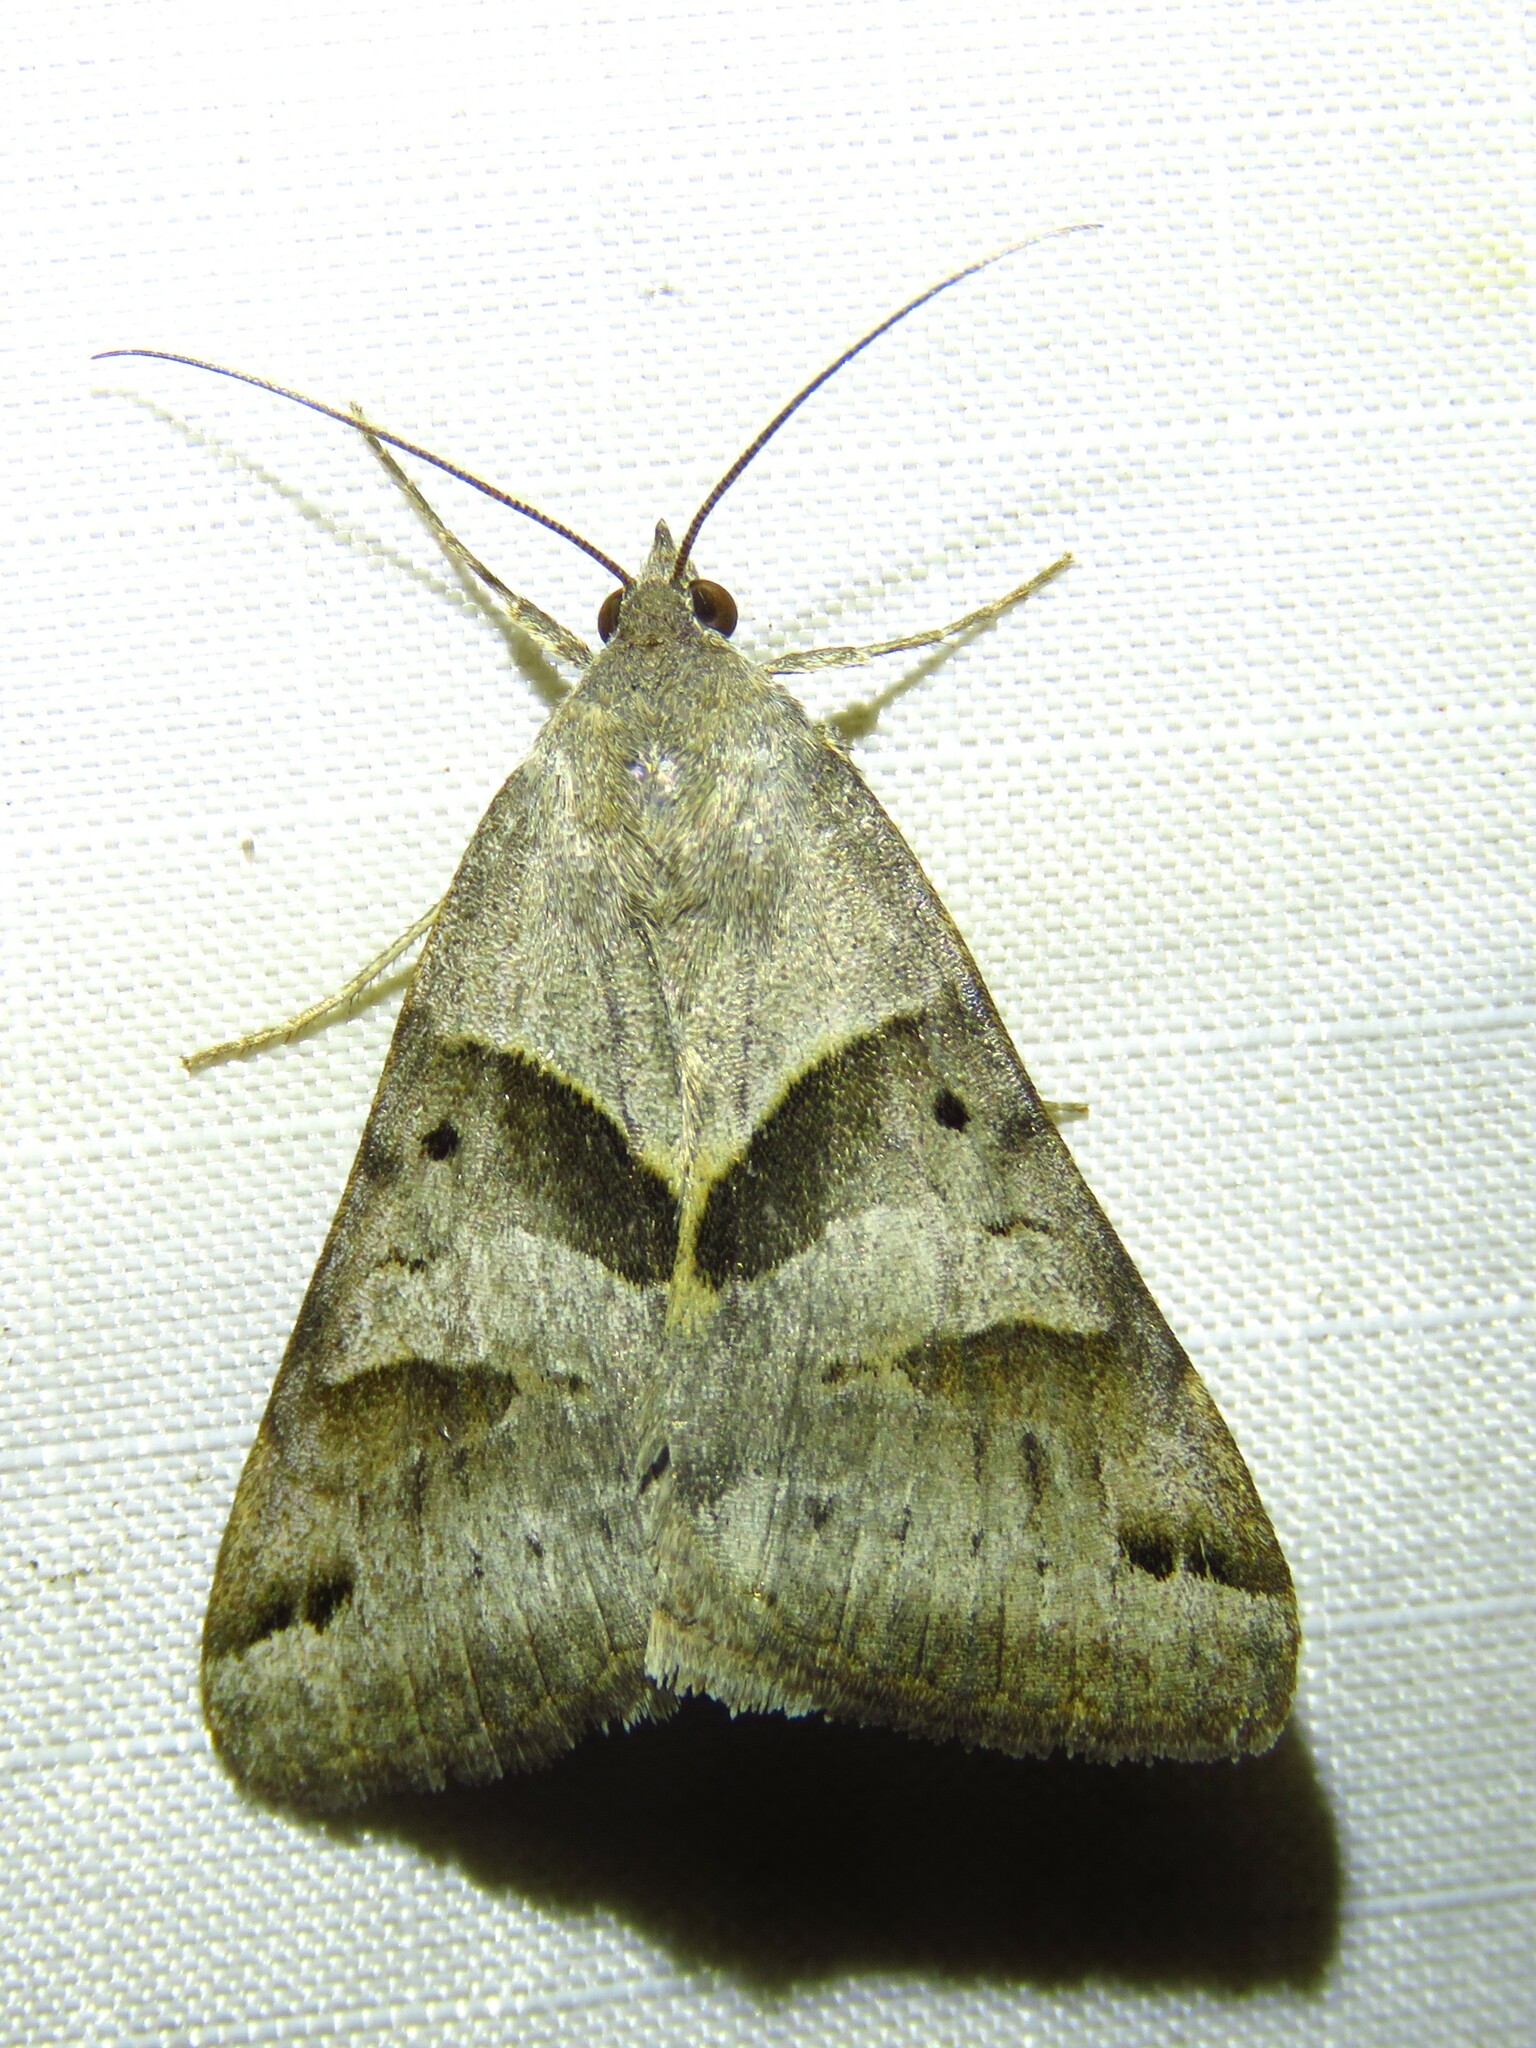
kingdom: Animalia
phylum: Arthropoda
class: Insecta
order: Lepidoptera
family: Erebidae
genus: Caenurgina
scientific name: Caenurgina erechtea
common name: Forage looper moth
